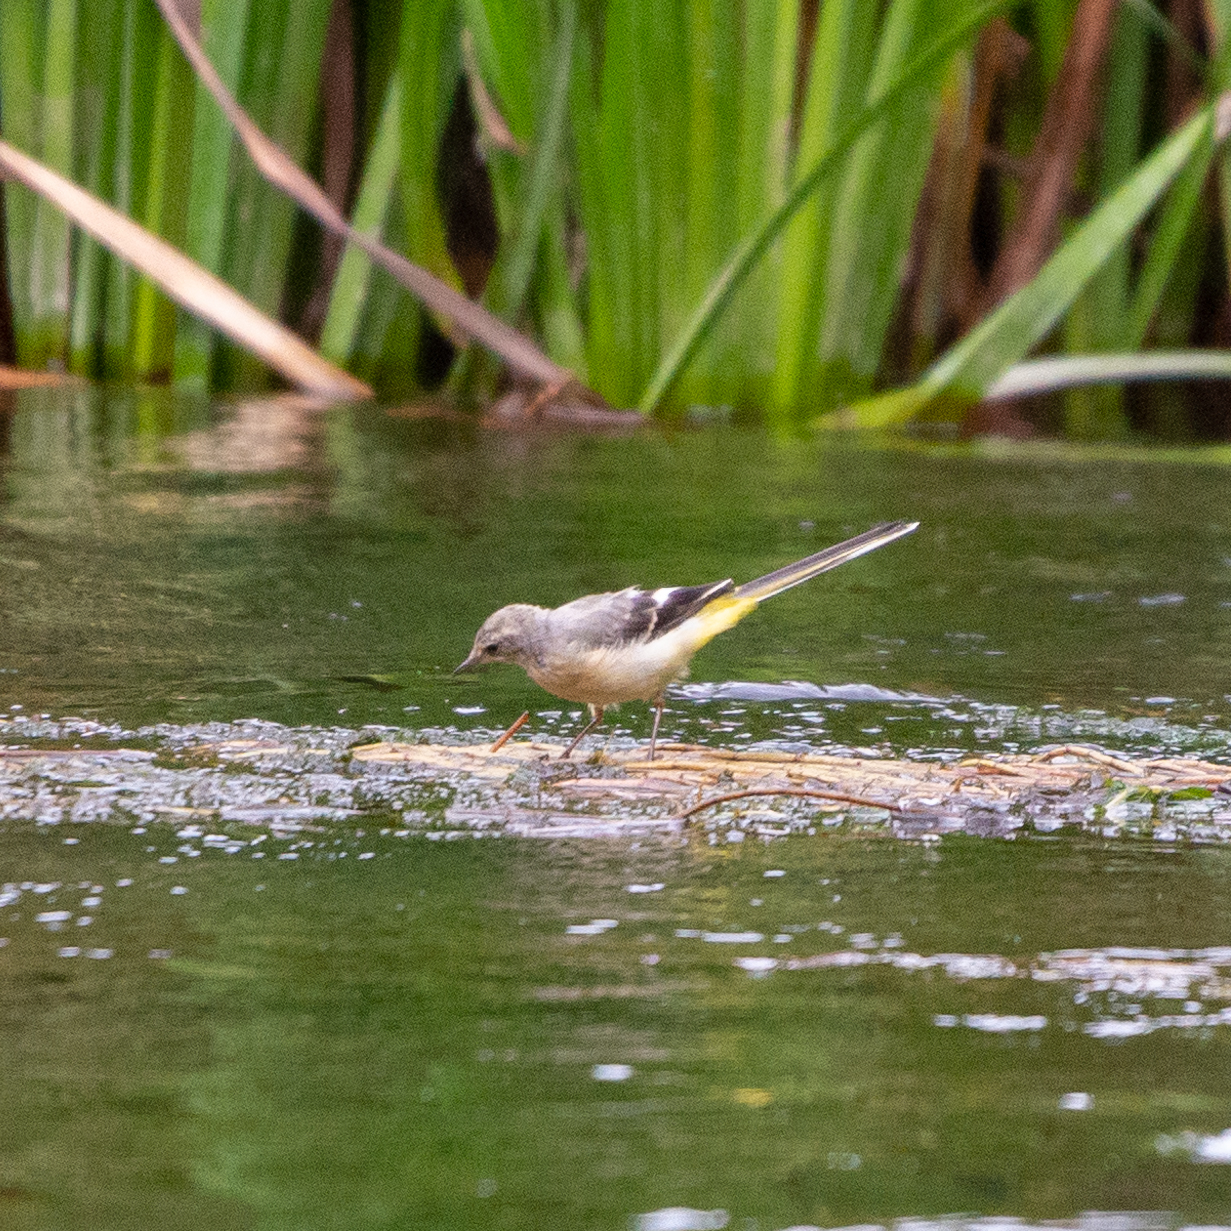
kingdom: Animalia
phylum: Chordata
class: Aves
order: Passeriformes
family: Motacillidae
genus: Motacilla
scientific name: Motacilla cinerea
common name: Grey wagtail
